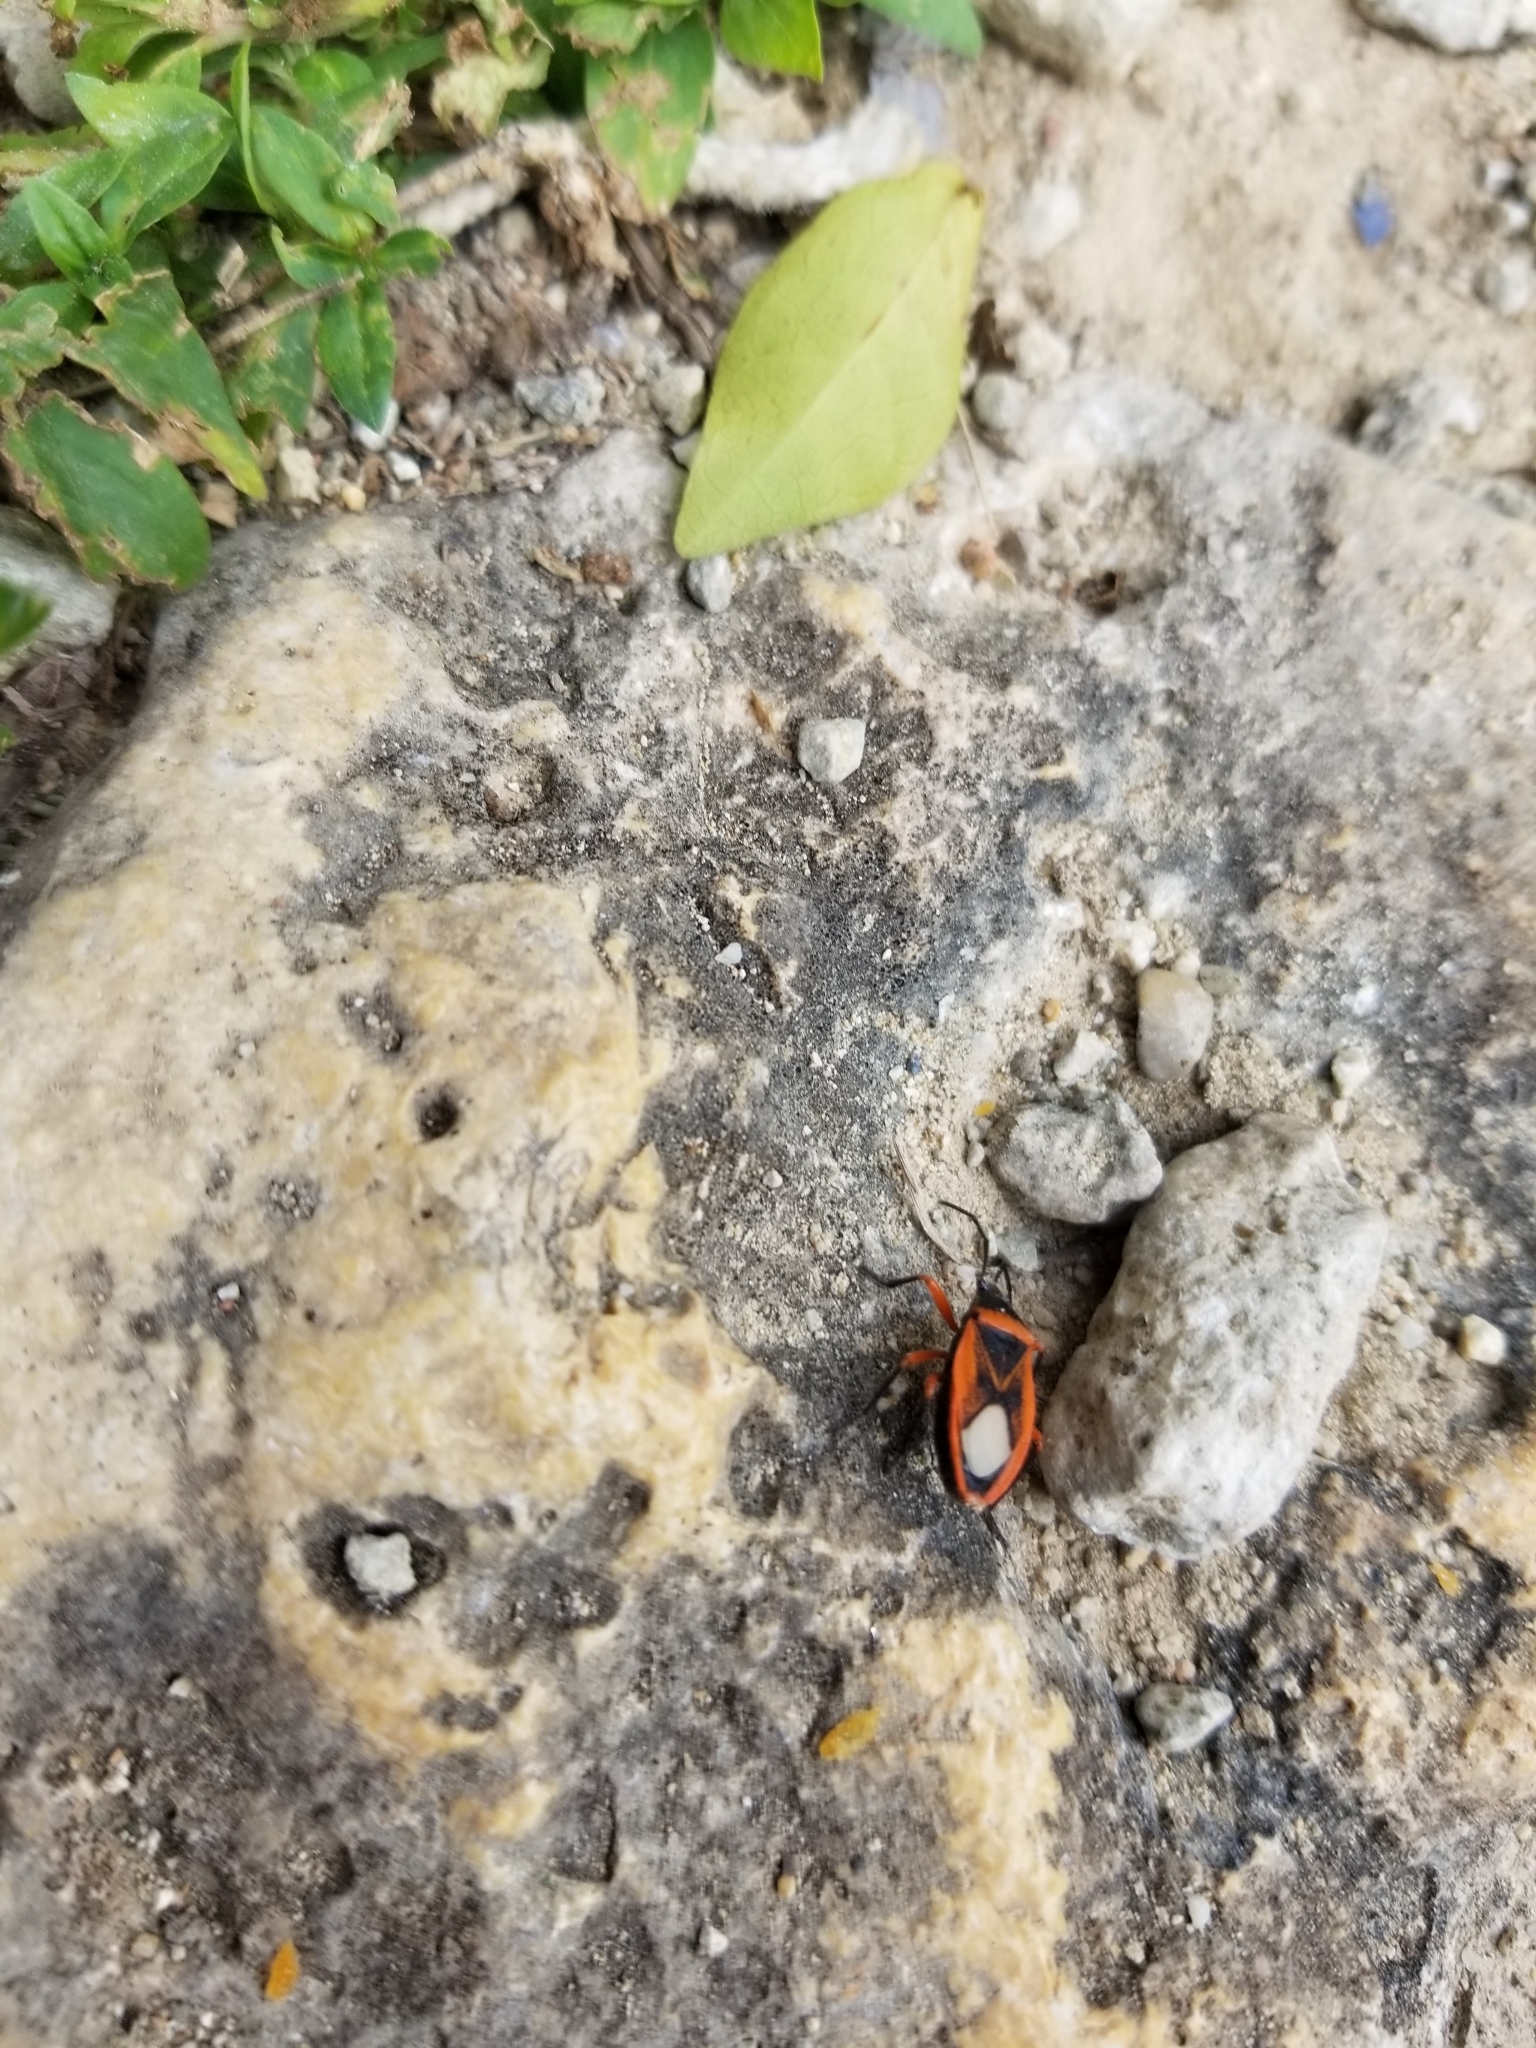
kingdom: Animalia
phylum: Arthropoda
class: Insecta
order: Hemiptera
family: Largidae
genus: Largus
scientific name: Largus obovatus
